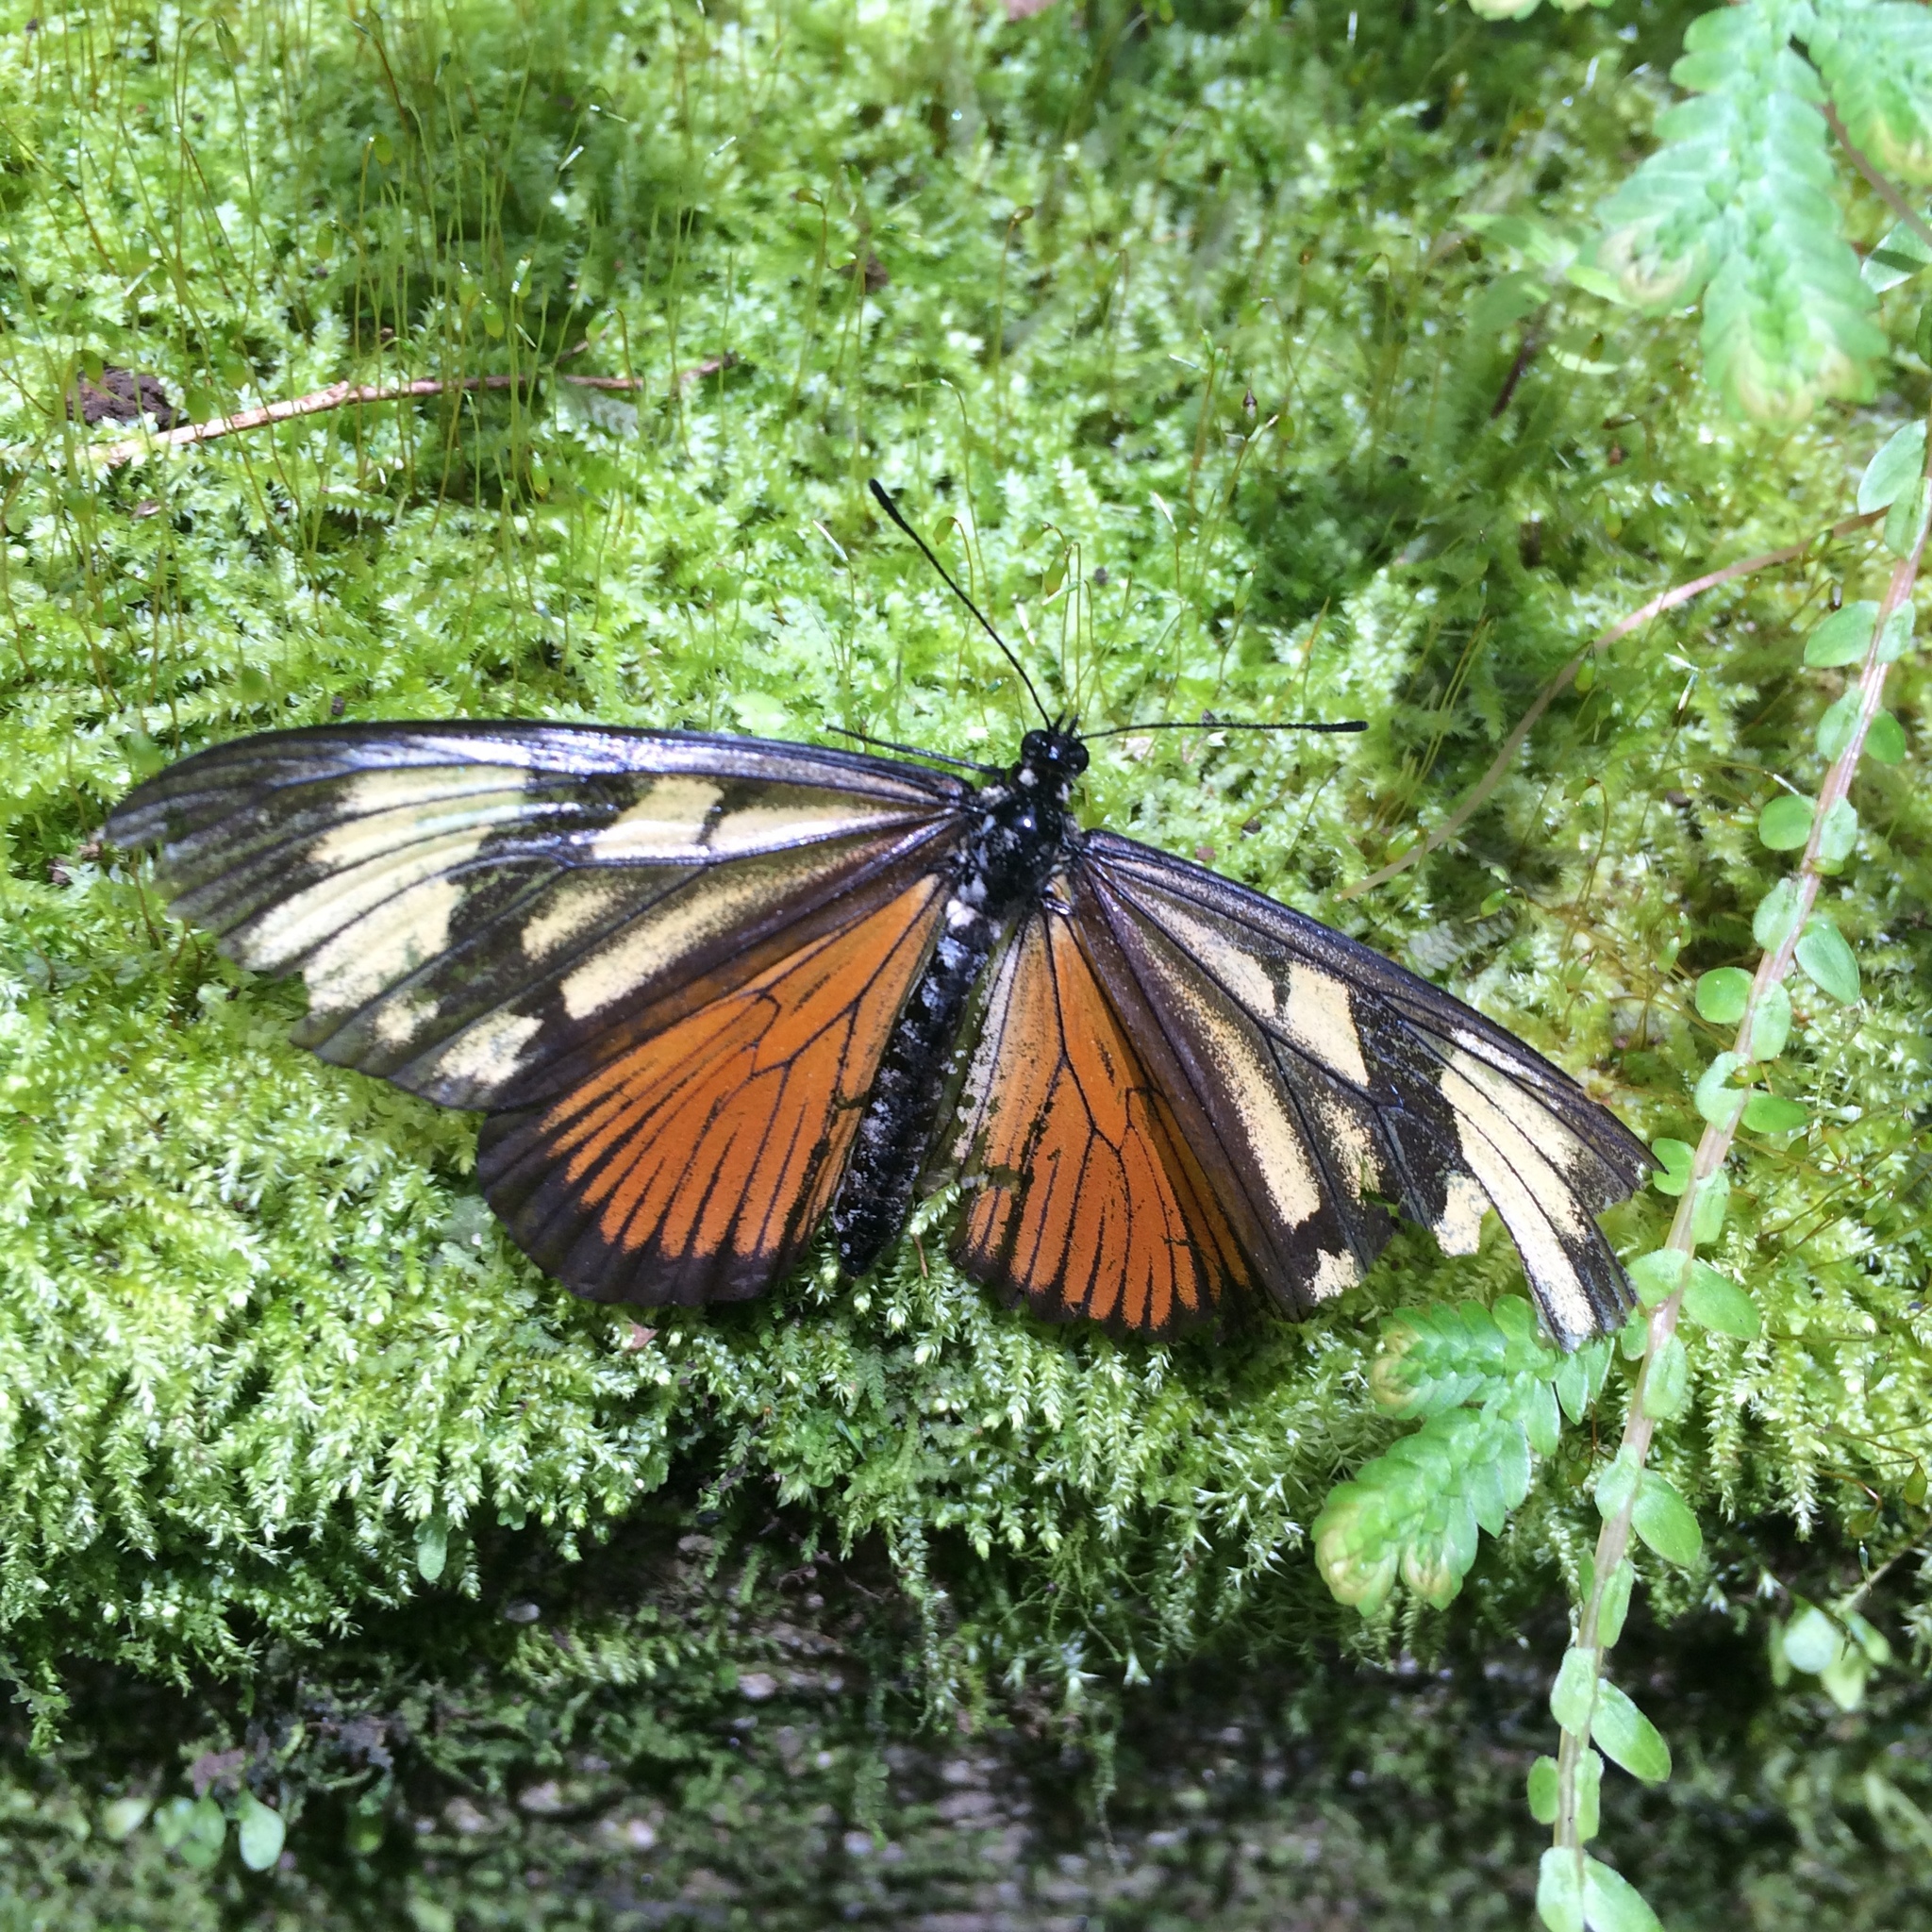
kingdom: Animalia
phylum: Arthropoda
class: Insecta
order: Lepidoptera
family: Nymphalidae
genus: Actinote
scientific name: Actinote anteas
